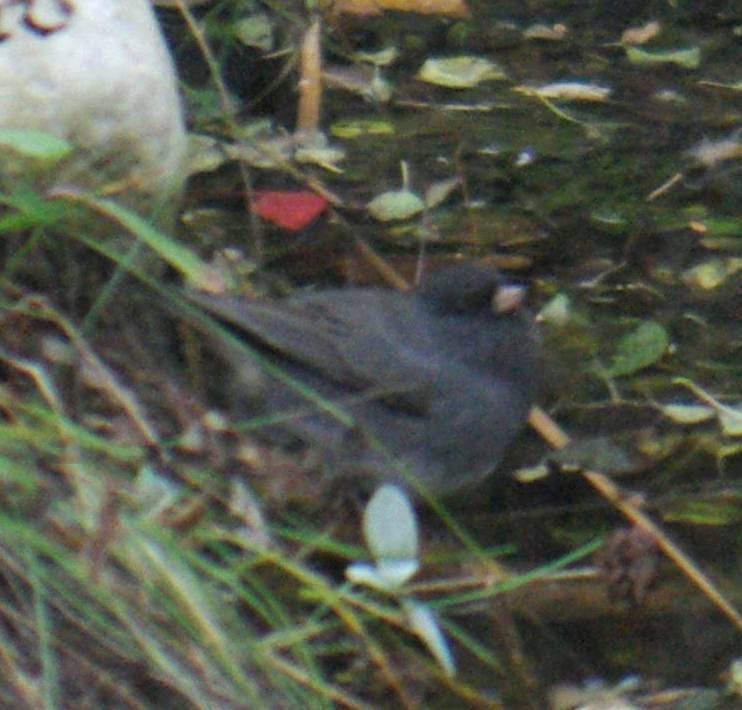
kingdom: Animalia
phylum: Chordata
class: Aves
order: Passeriformes
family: Passerellidae
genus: Junco
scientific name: Junco hyemalis
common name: Dark-eyed junco
